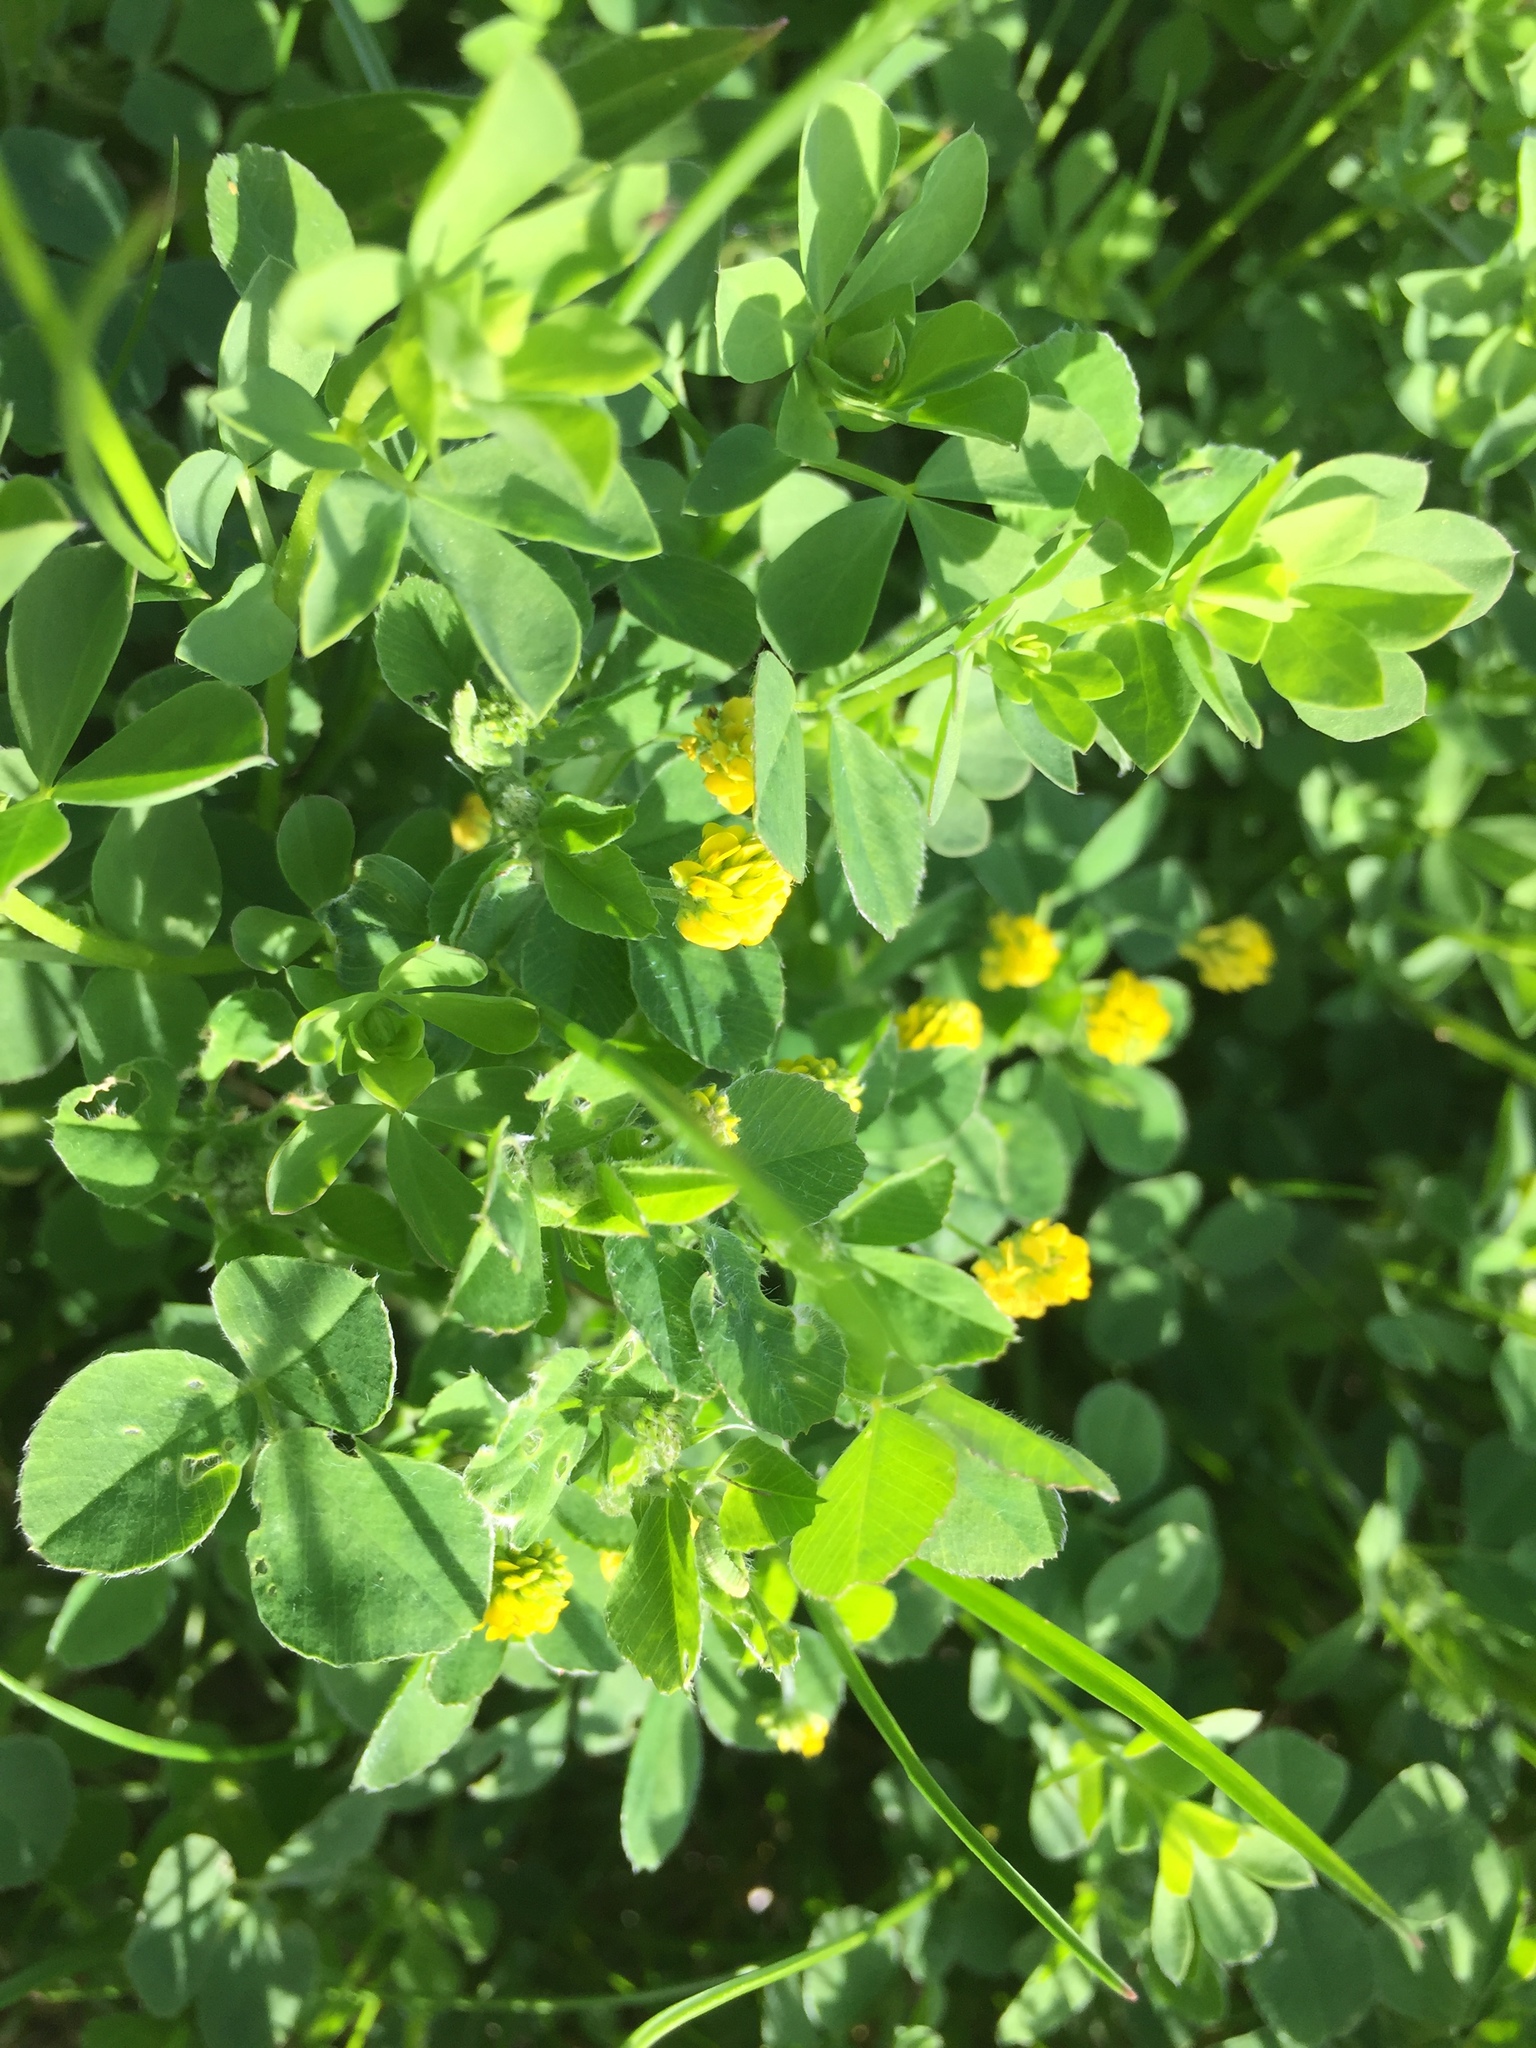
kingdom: Plantae
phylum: Tracheophyta
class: Magnoliopsida
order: Fabales
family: Fabaceae
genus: Medicago
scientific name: Medicago lupulina
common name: Black medick
